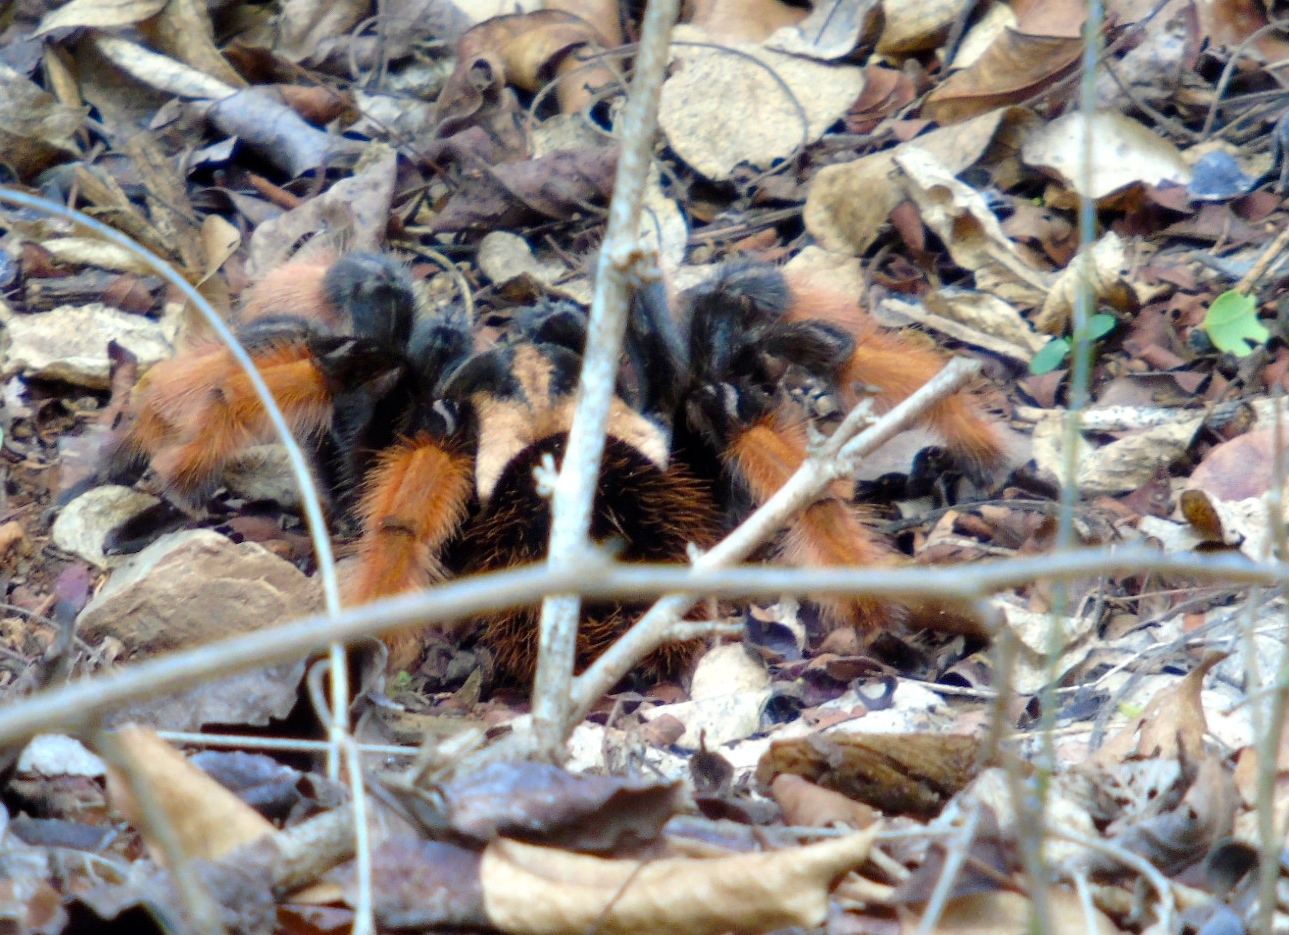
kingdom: Animalia
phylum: Arthropoda
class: Arachnida
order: Araneae
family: Theraphosidae
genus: Brachypelma
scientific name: Brachypelma emilia
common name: Mexican redleg
